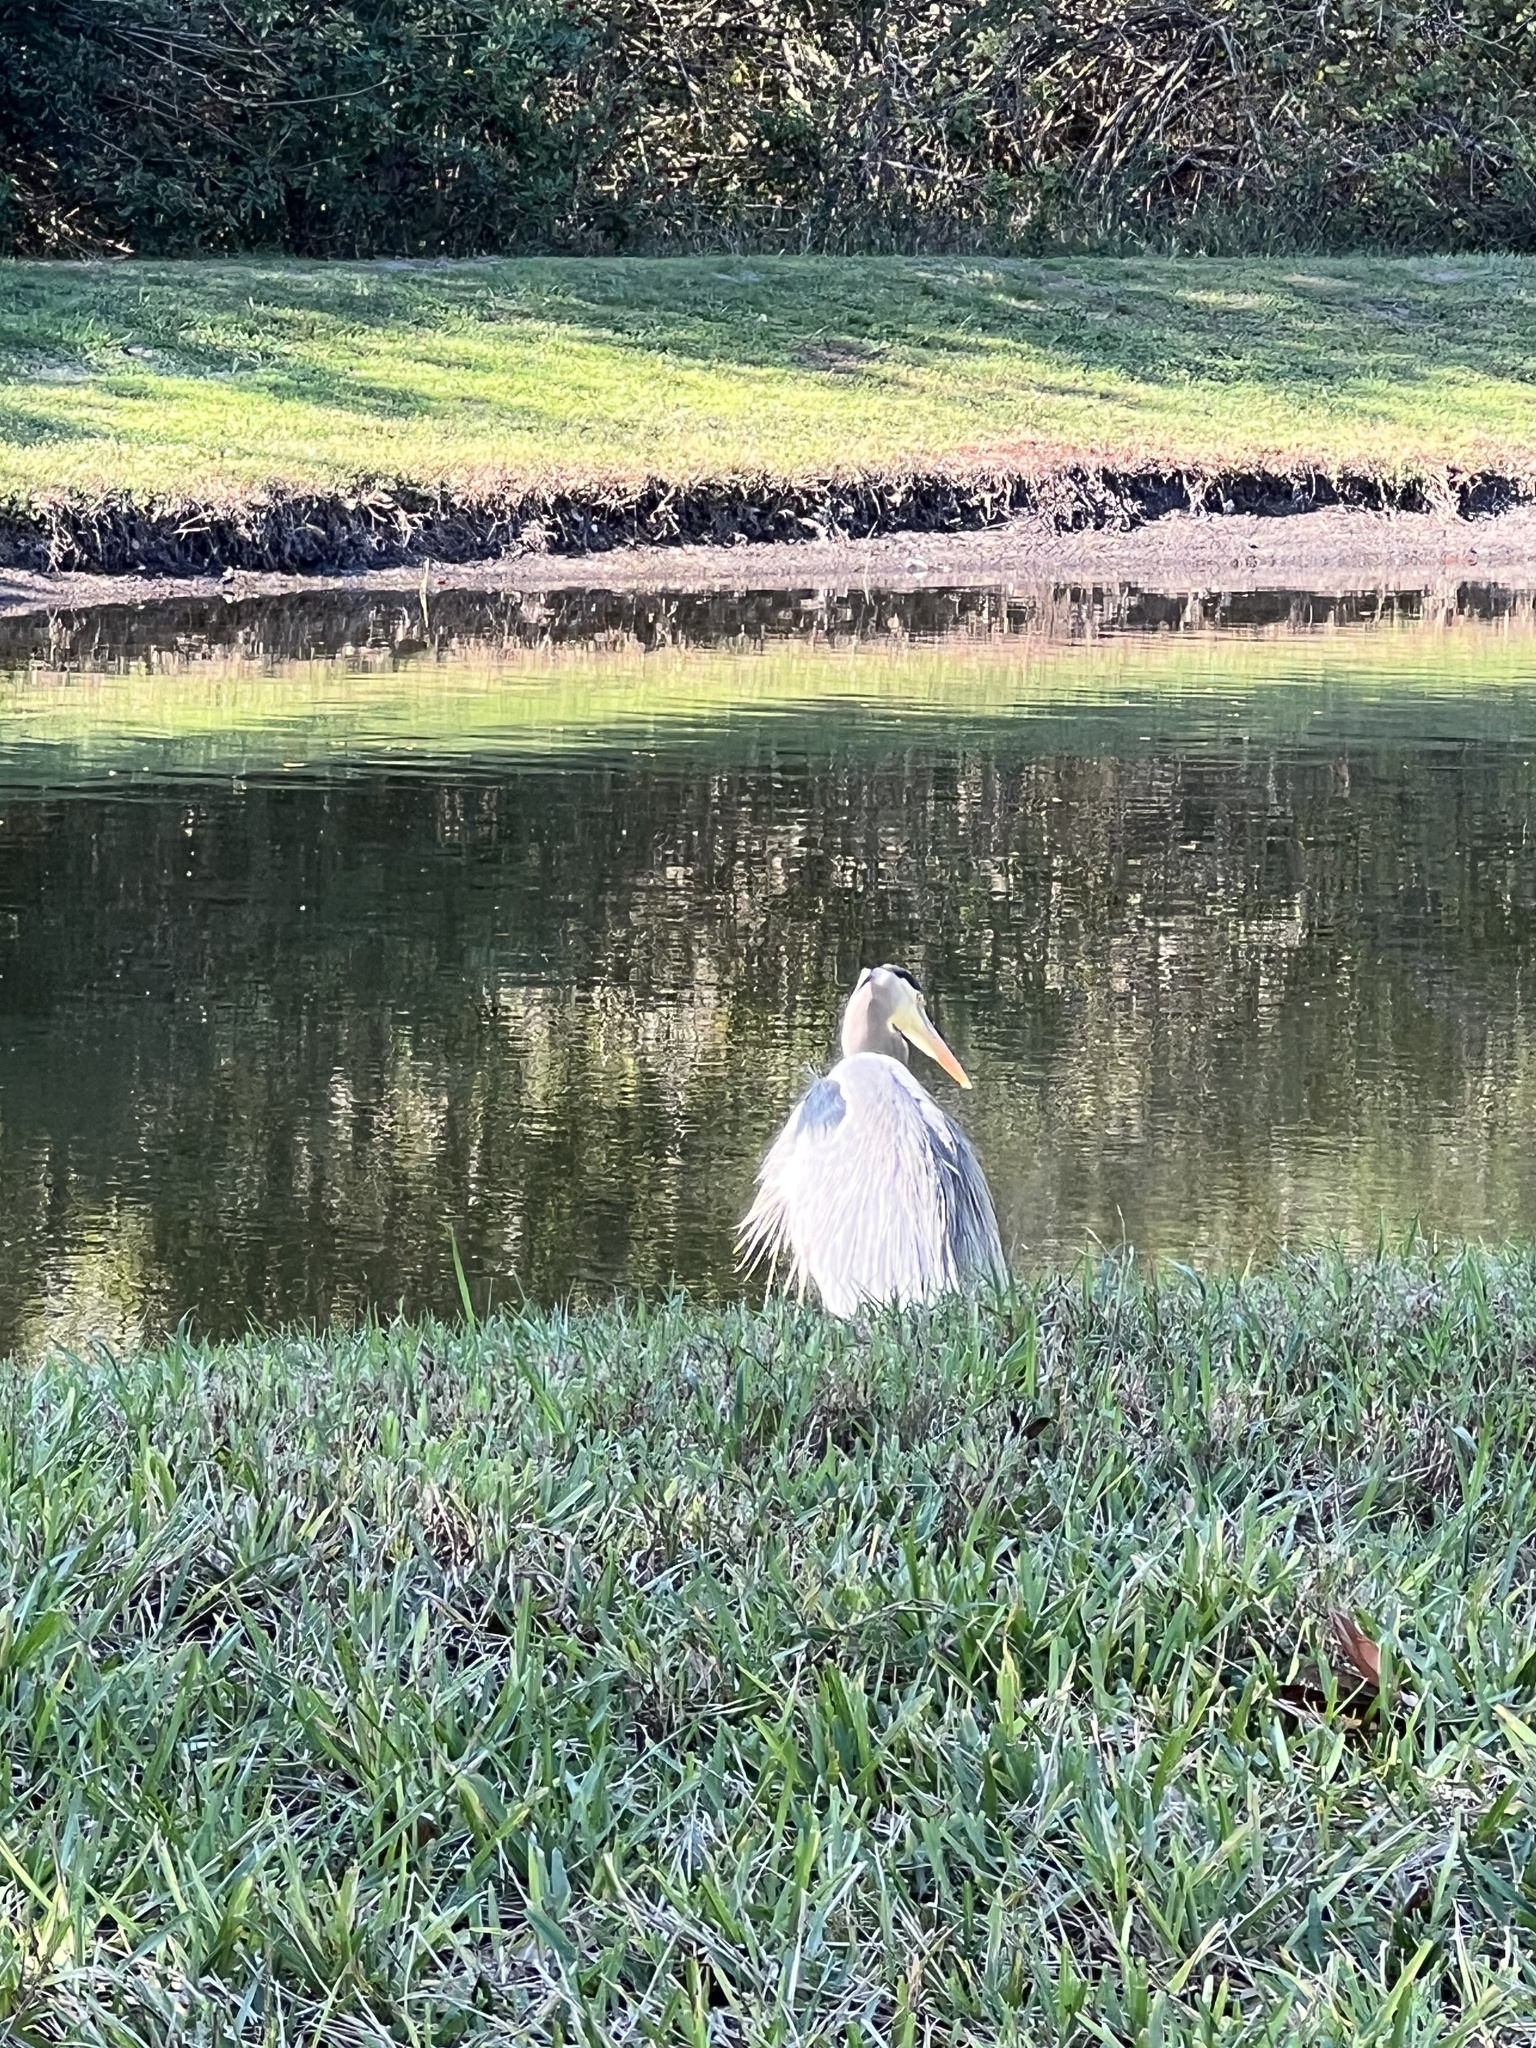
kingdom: Animalia
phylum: Chordata
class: Aves
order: Pelecaniformes
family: Ardeidae
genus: Ardea
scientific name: Ardea herodias
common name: Great blue heron
